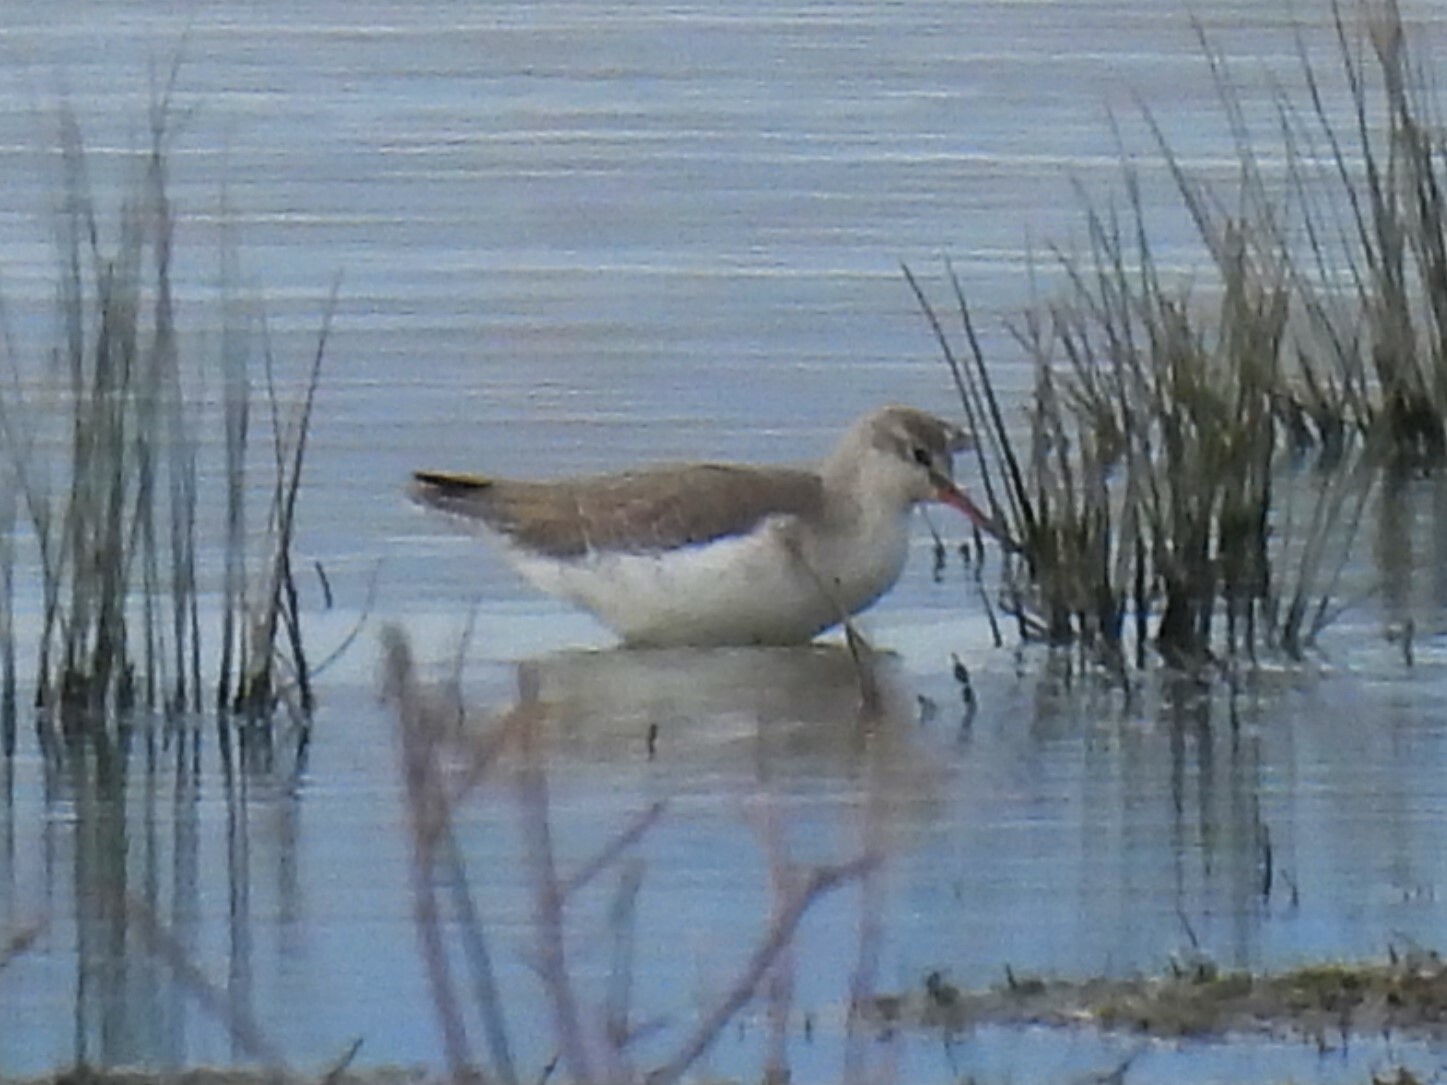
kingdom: Animalia
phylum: Chordata
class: Aves
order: Charadriiformes
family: Scolopacidae
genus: Tringa
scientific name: Tringa erythropus
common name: Spotted redshank
